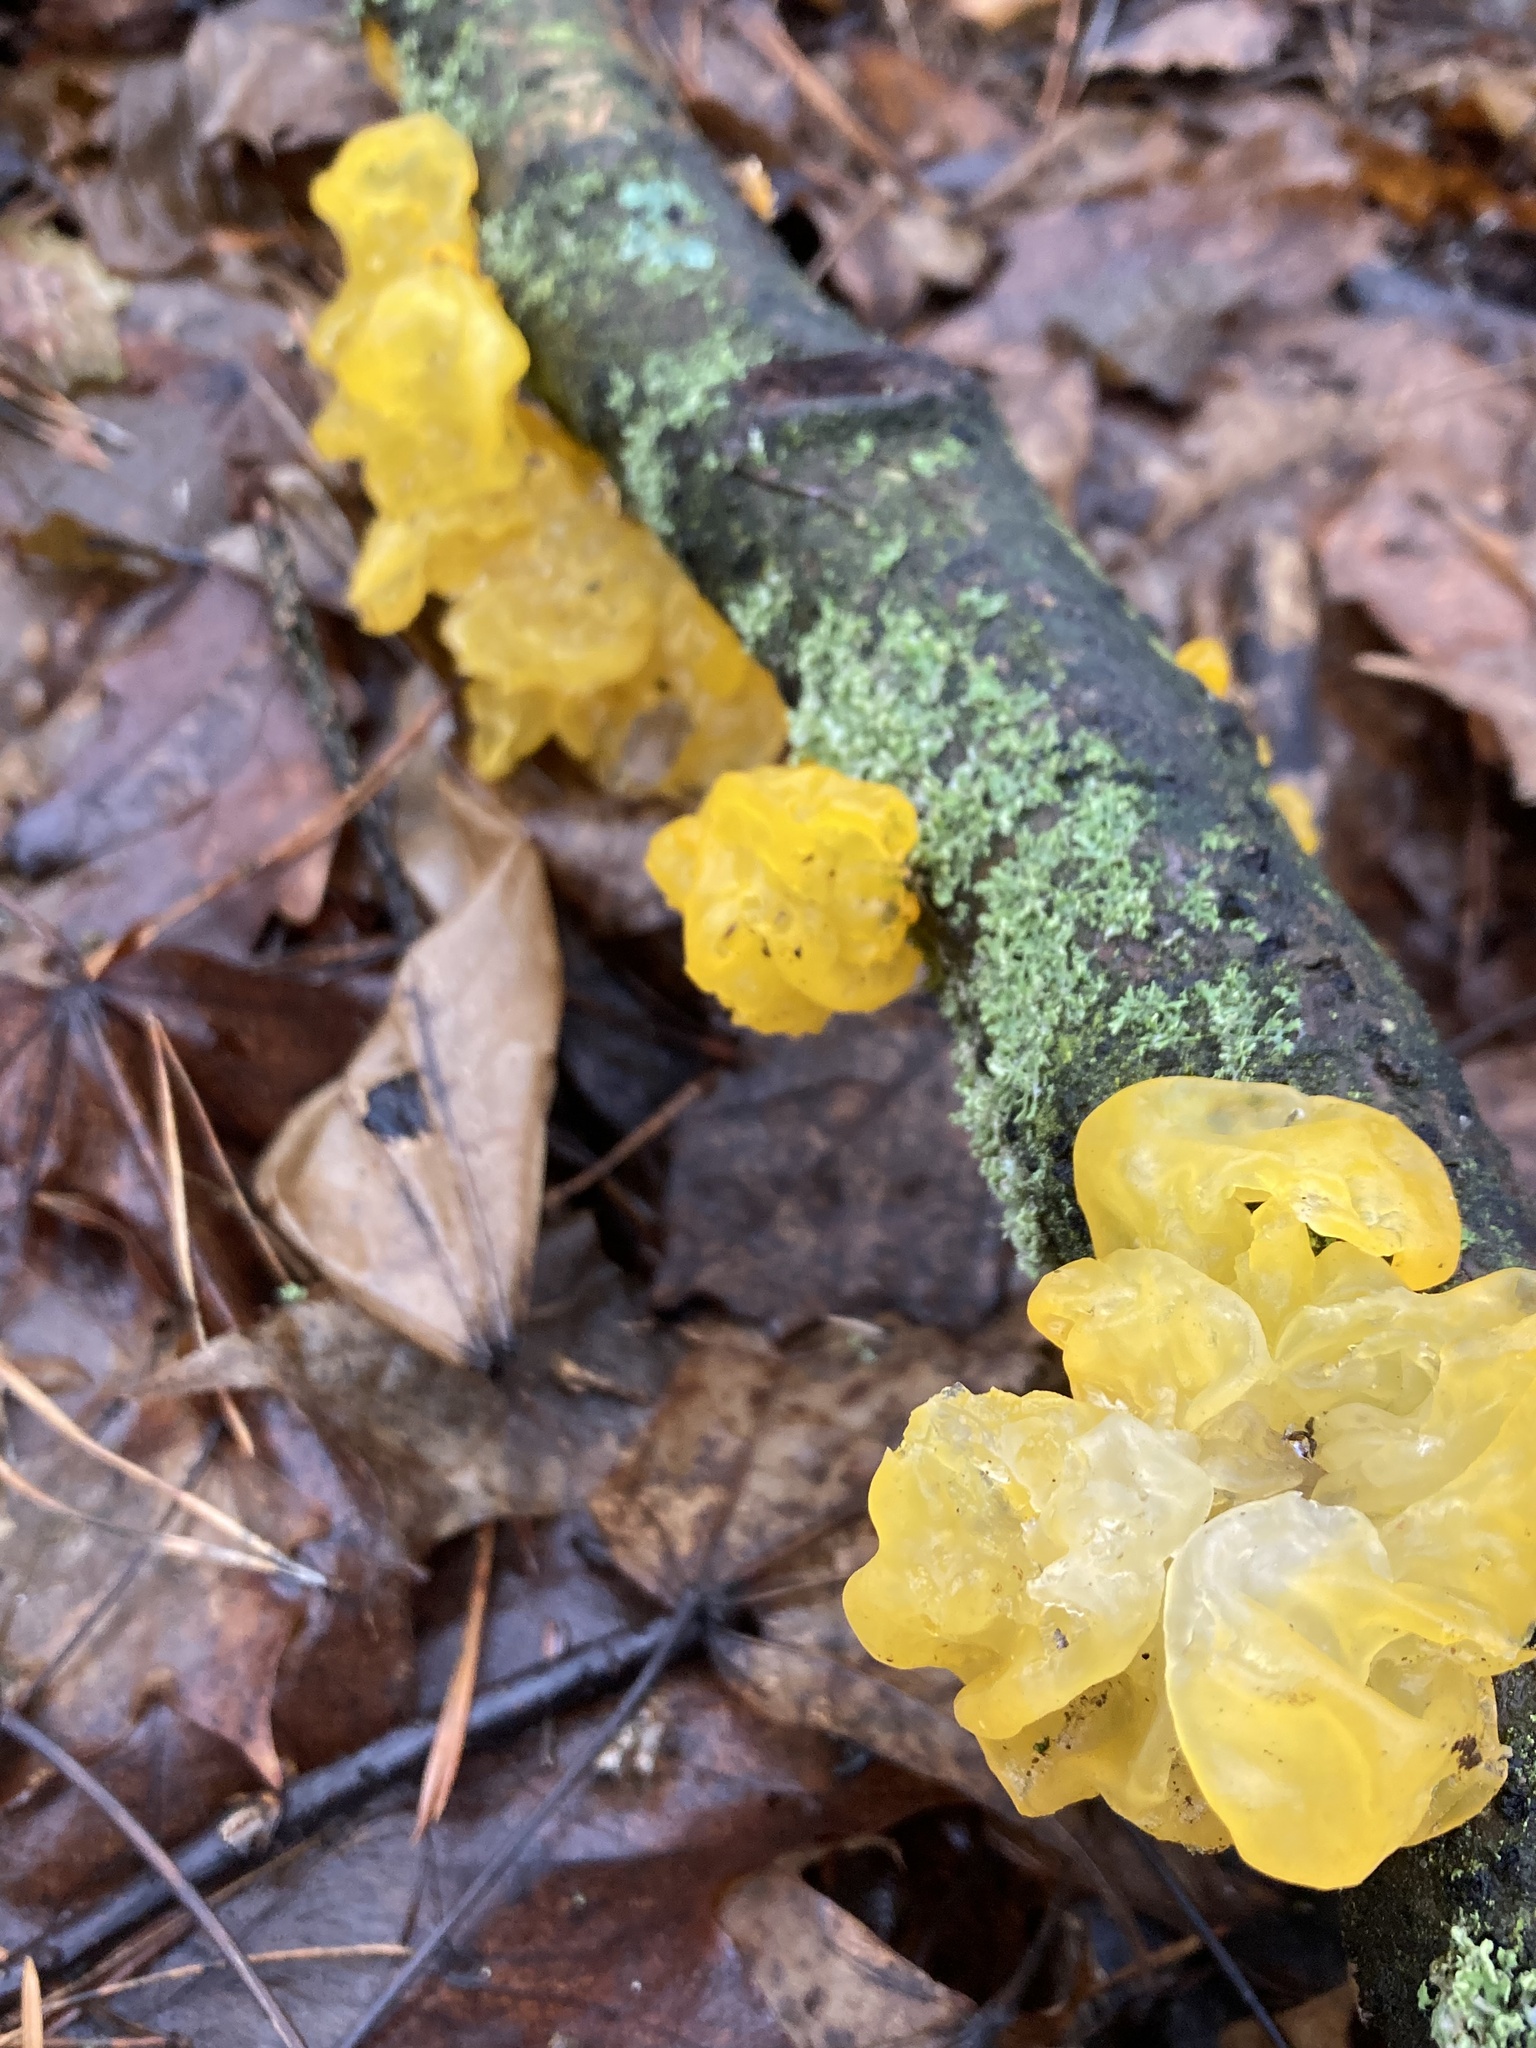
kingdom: Fungi
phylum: Basidiomycota
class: Tremellomycetes
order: Tremellales
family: Tremellaceae
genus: Tremella
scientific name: Tremella mesenterica
